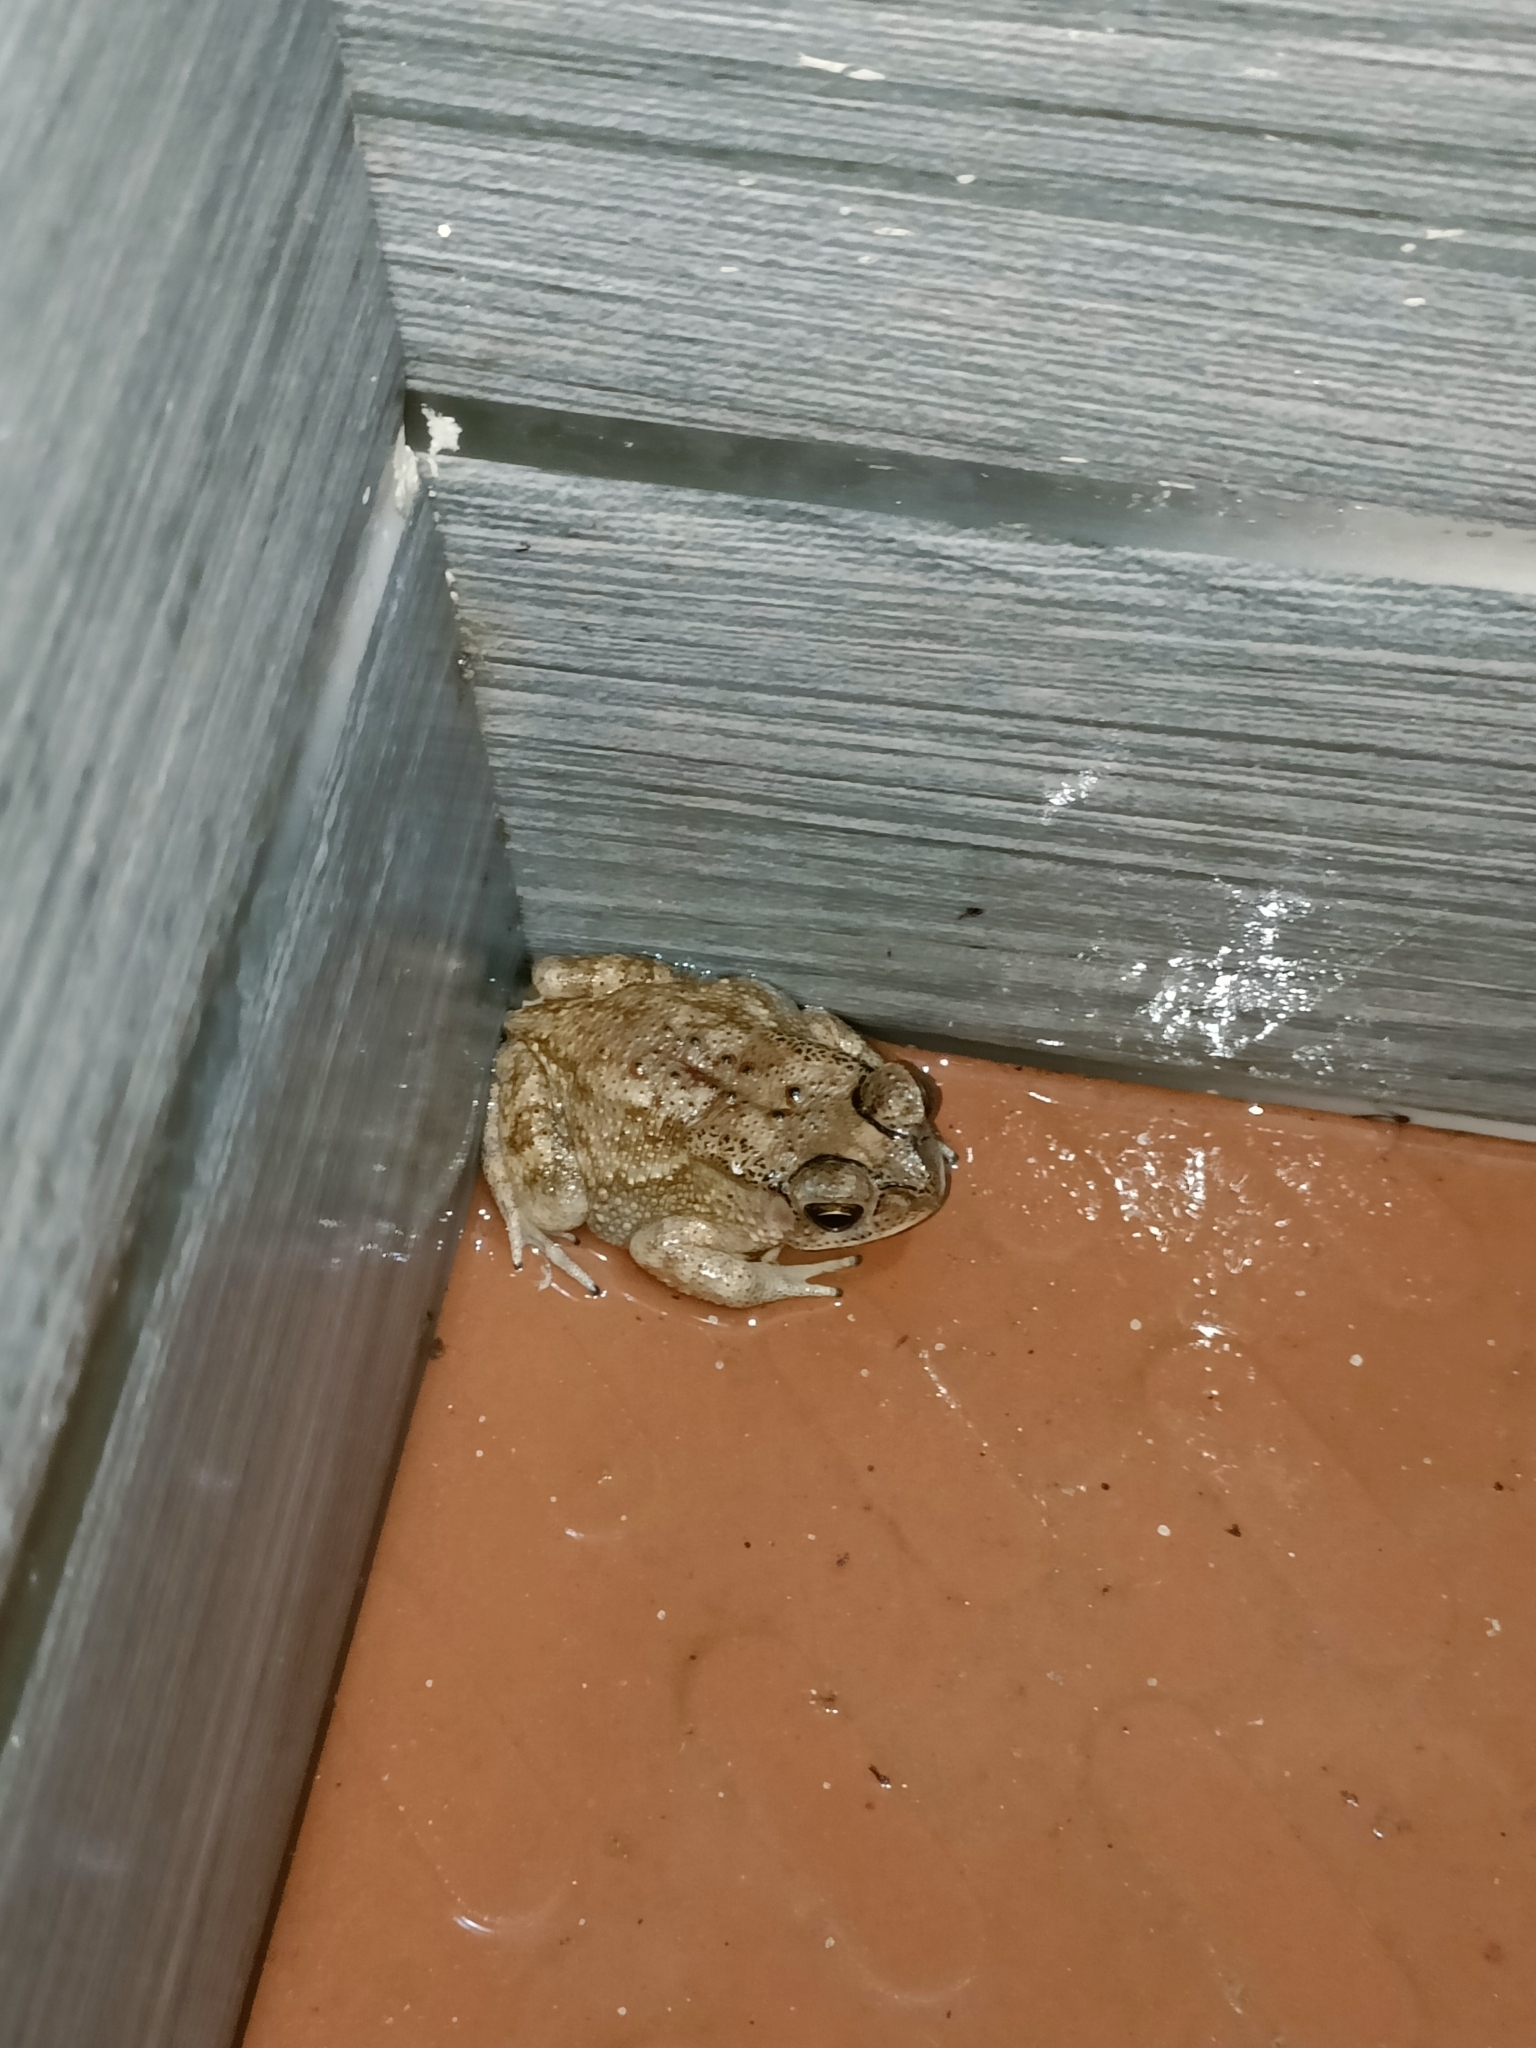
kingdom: Animalia
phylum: Chordata
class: Amphibia
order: Anura
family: Bufonidae
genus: Duttaphrynus
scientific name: Duttaphrynus melanostictus
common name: Common sunda toad
